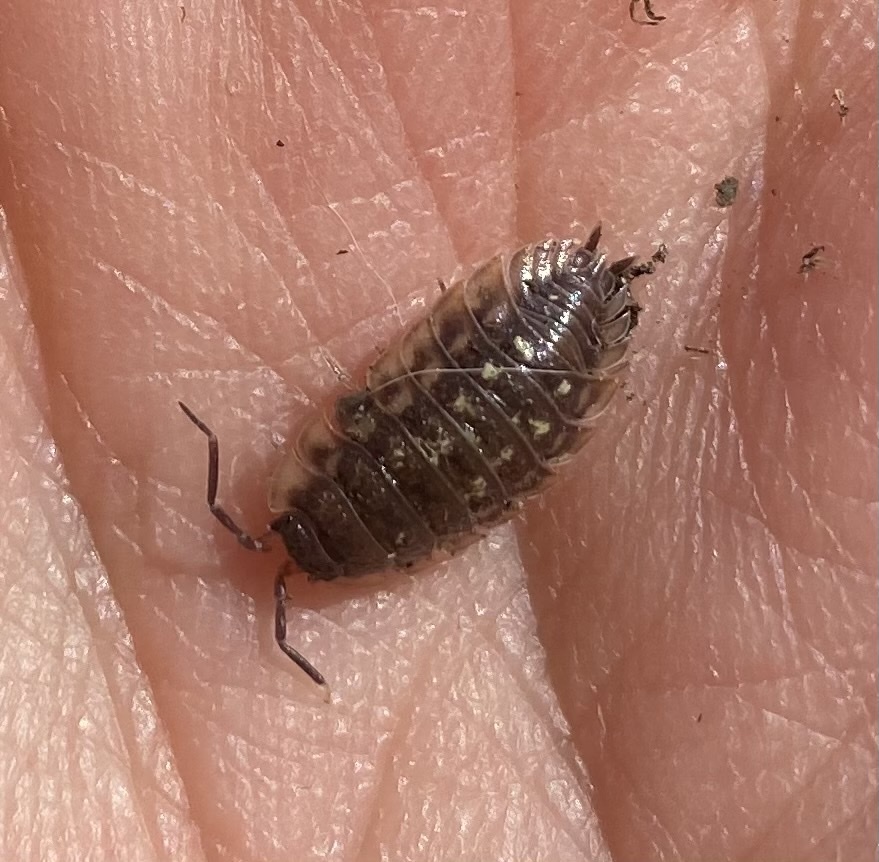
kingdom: Animalia
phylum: Arthropoda
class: Malacostraca
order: Isopoda
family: Oniscidae
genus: Oniscus
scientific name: Oniscus asellus
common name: Common shiny woodlouse
